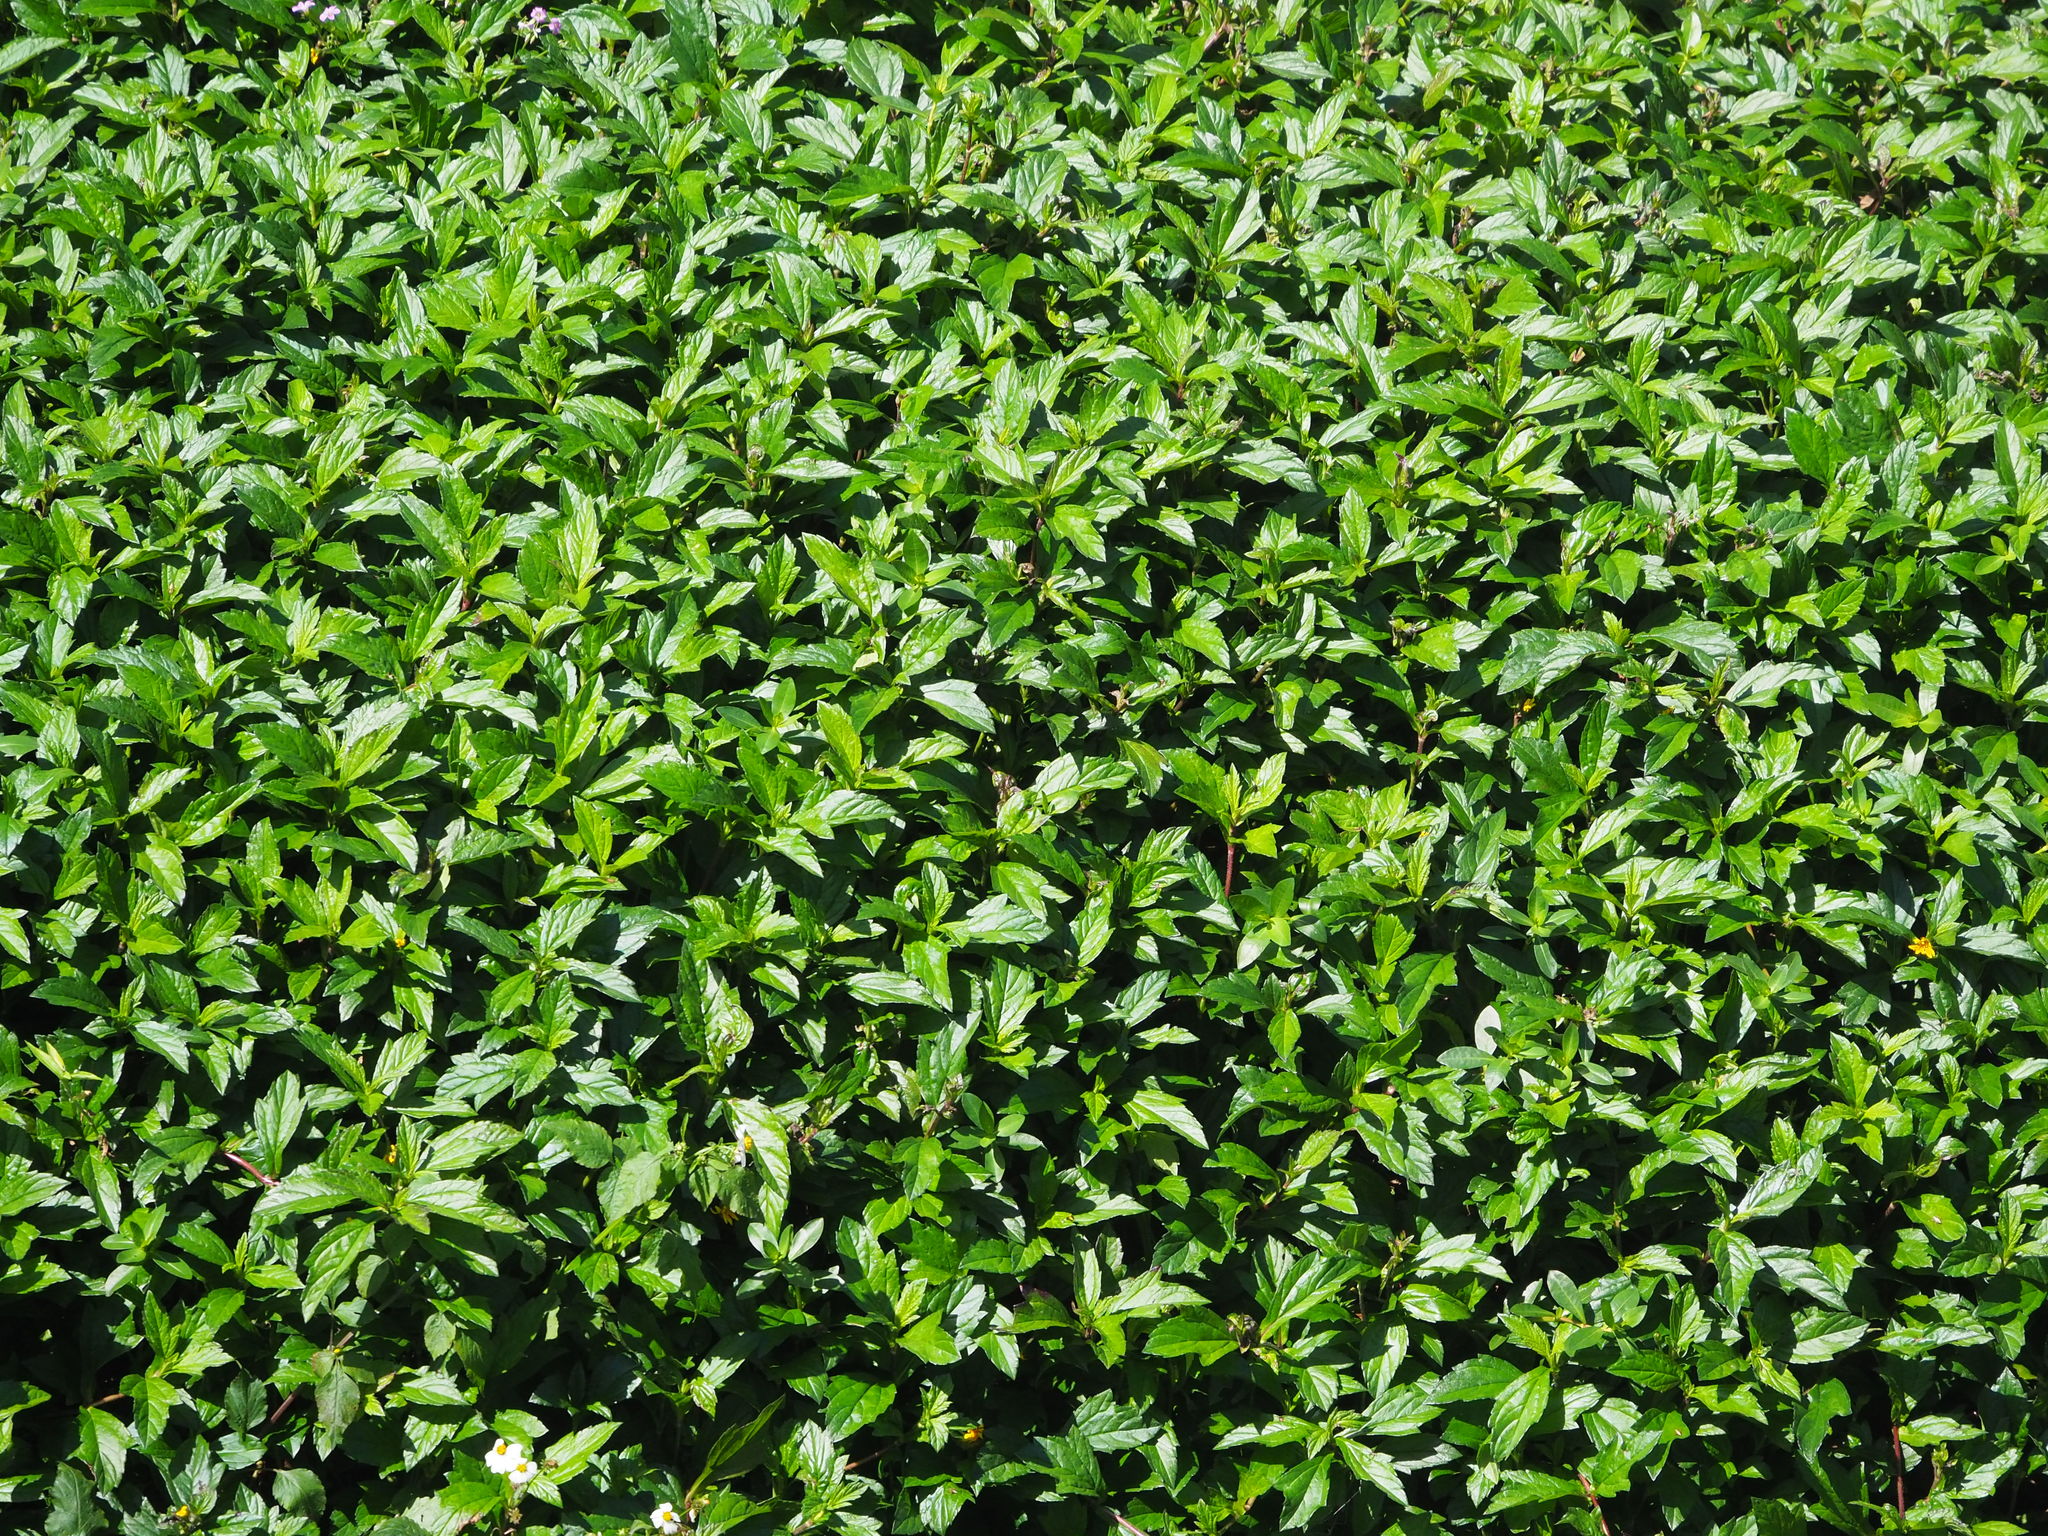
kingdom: Plantae
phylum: Tracheophyta
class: Magnoliopsida
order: Asterales
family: Asteraceae
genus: Sphagneticola
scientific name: Sphagneticola trilobata
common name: Bay biscayne creeping-oxeye
